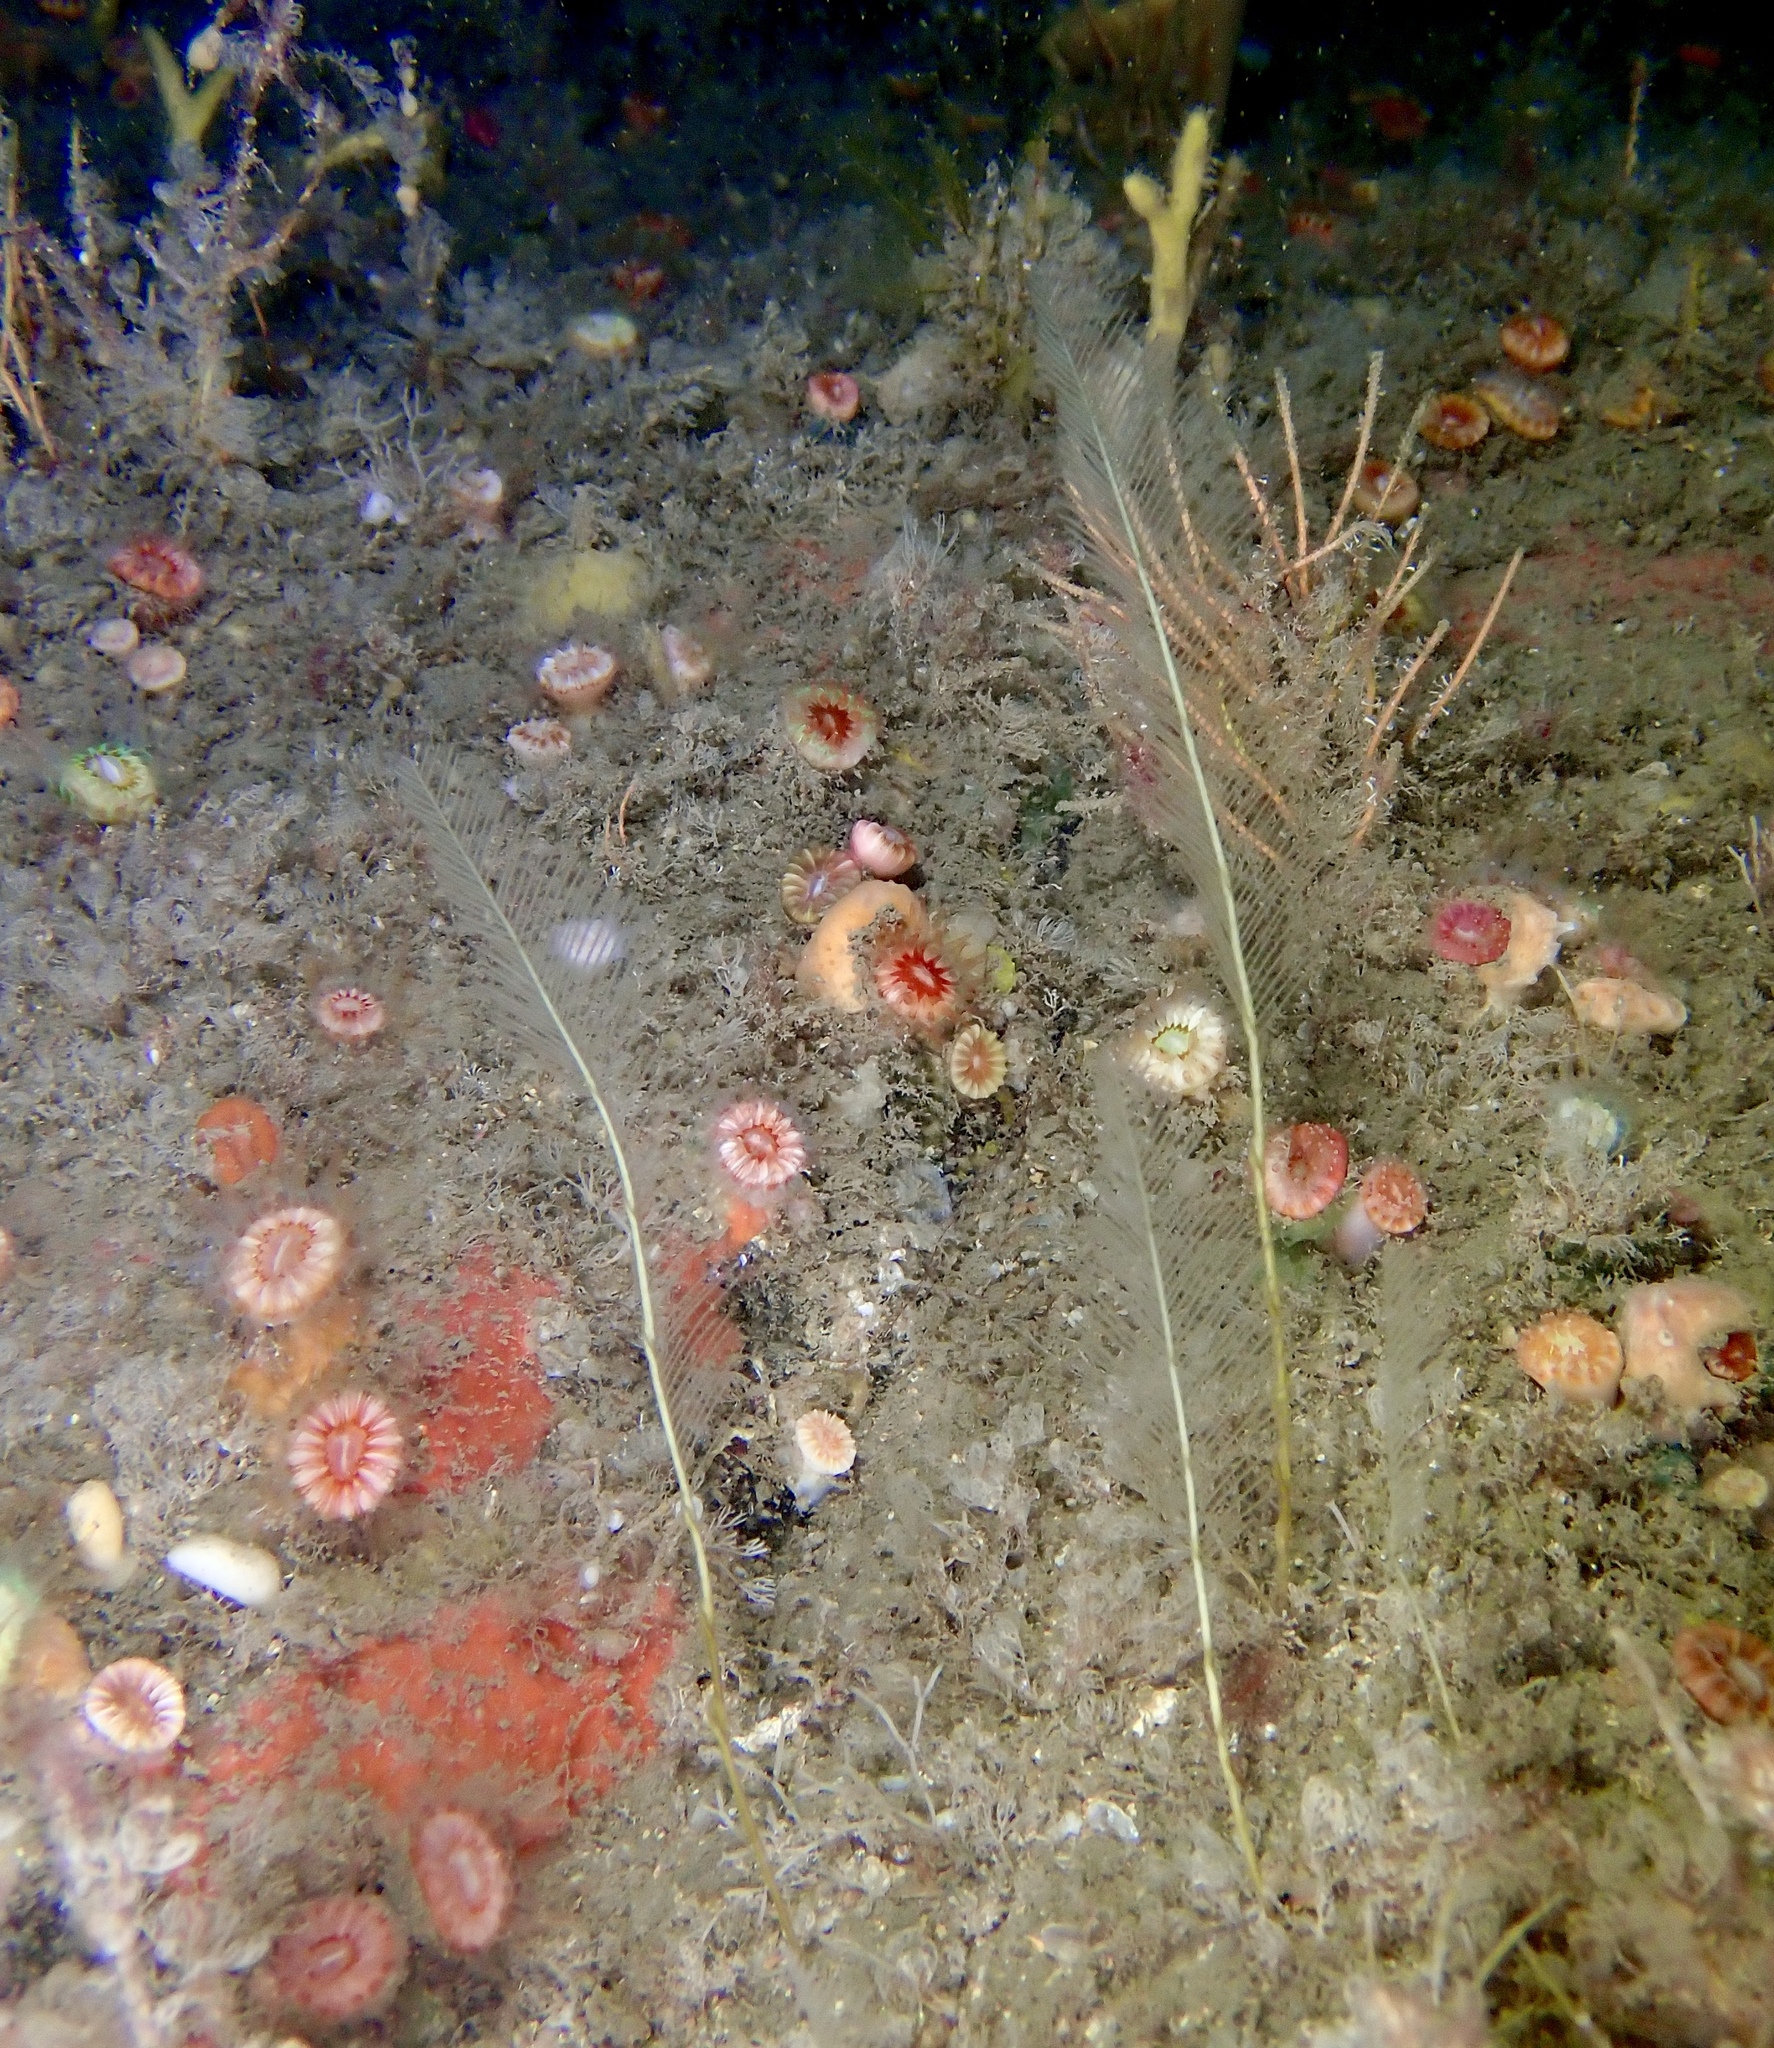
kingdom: Animalia
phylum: Cnidaria
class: Hydrozoa
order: Leptothecata
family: Aglaopheniidae
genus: Lytocarpia
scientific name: Lytocarpia myriophyllum
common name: Pheasant-tail hydroid
